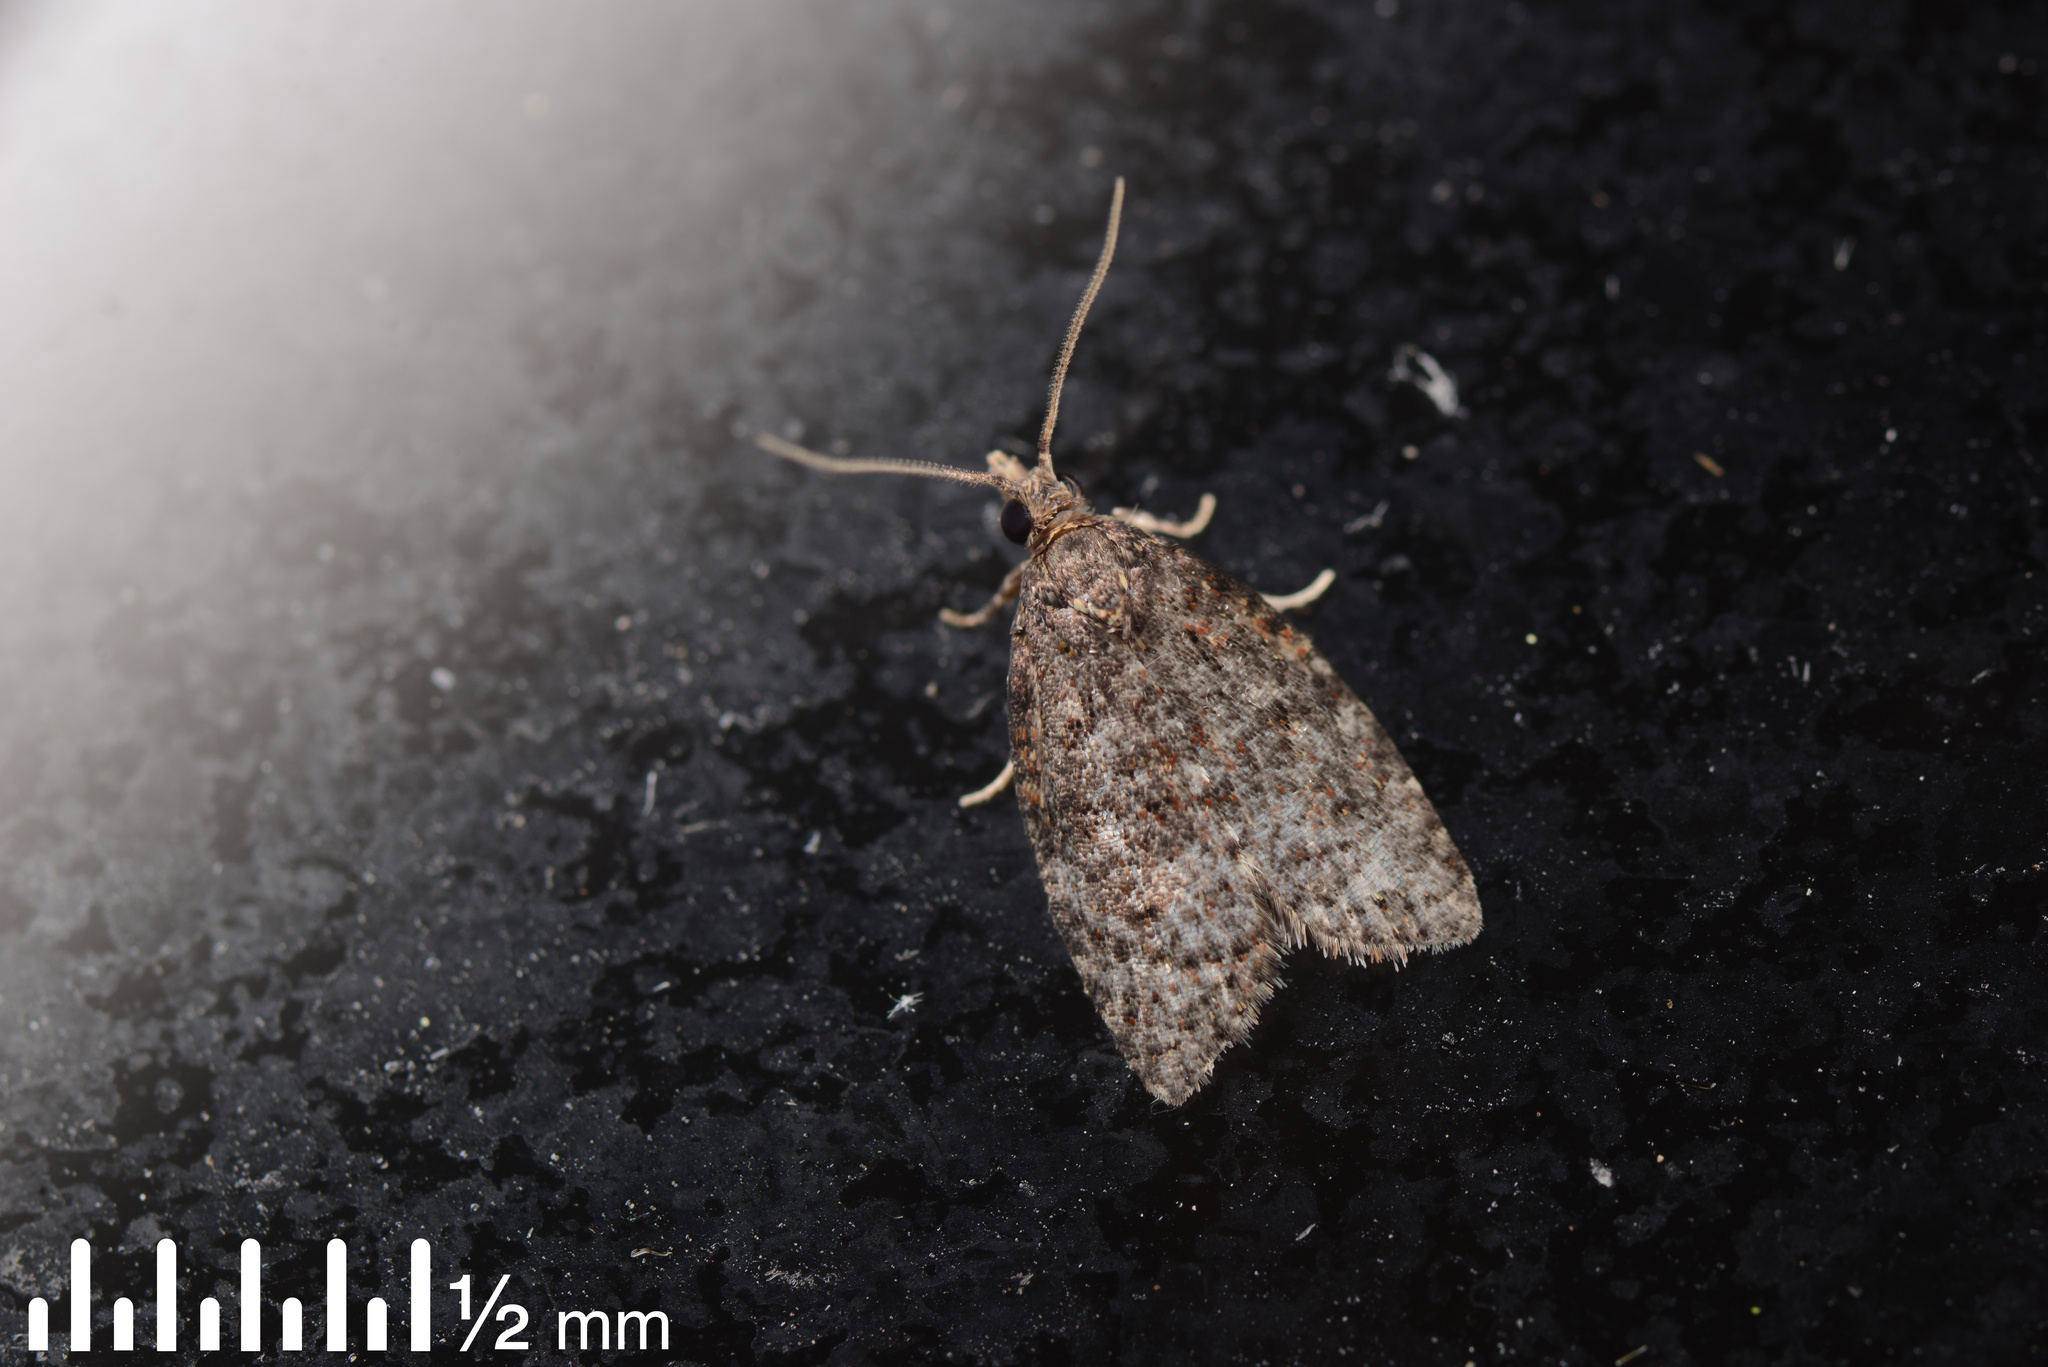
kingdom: Animalia
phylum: Arthropoda
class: Insecta
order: Lepidoptera
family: Tortricidae
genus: Capua
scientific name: Capua intractana
